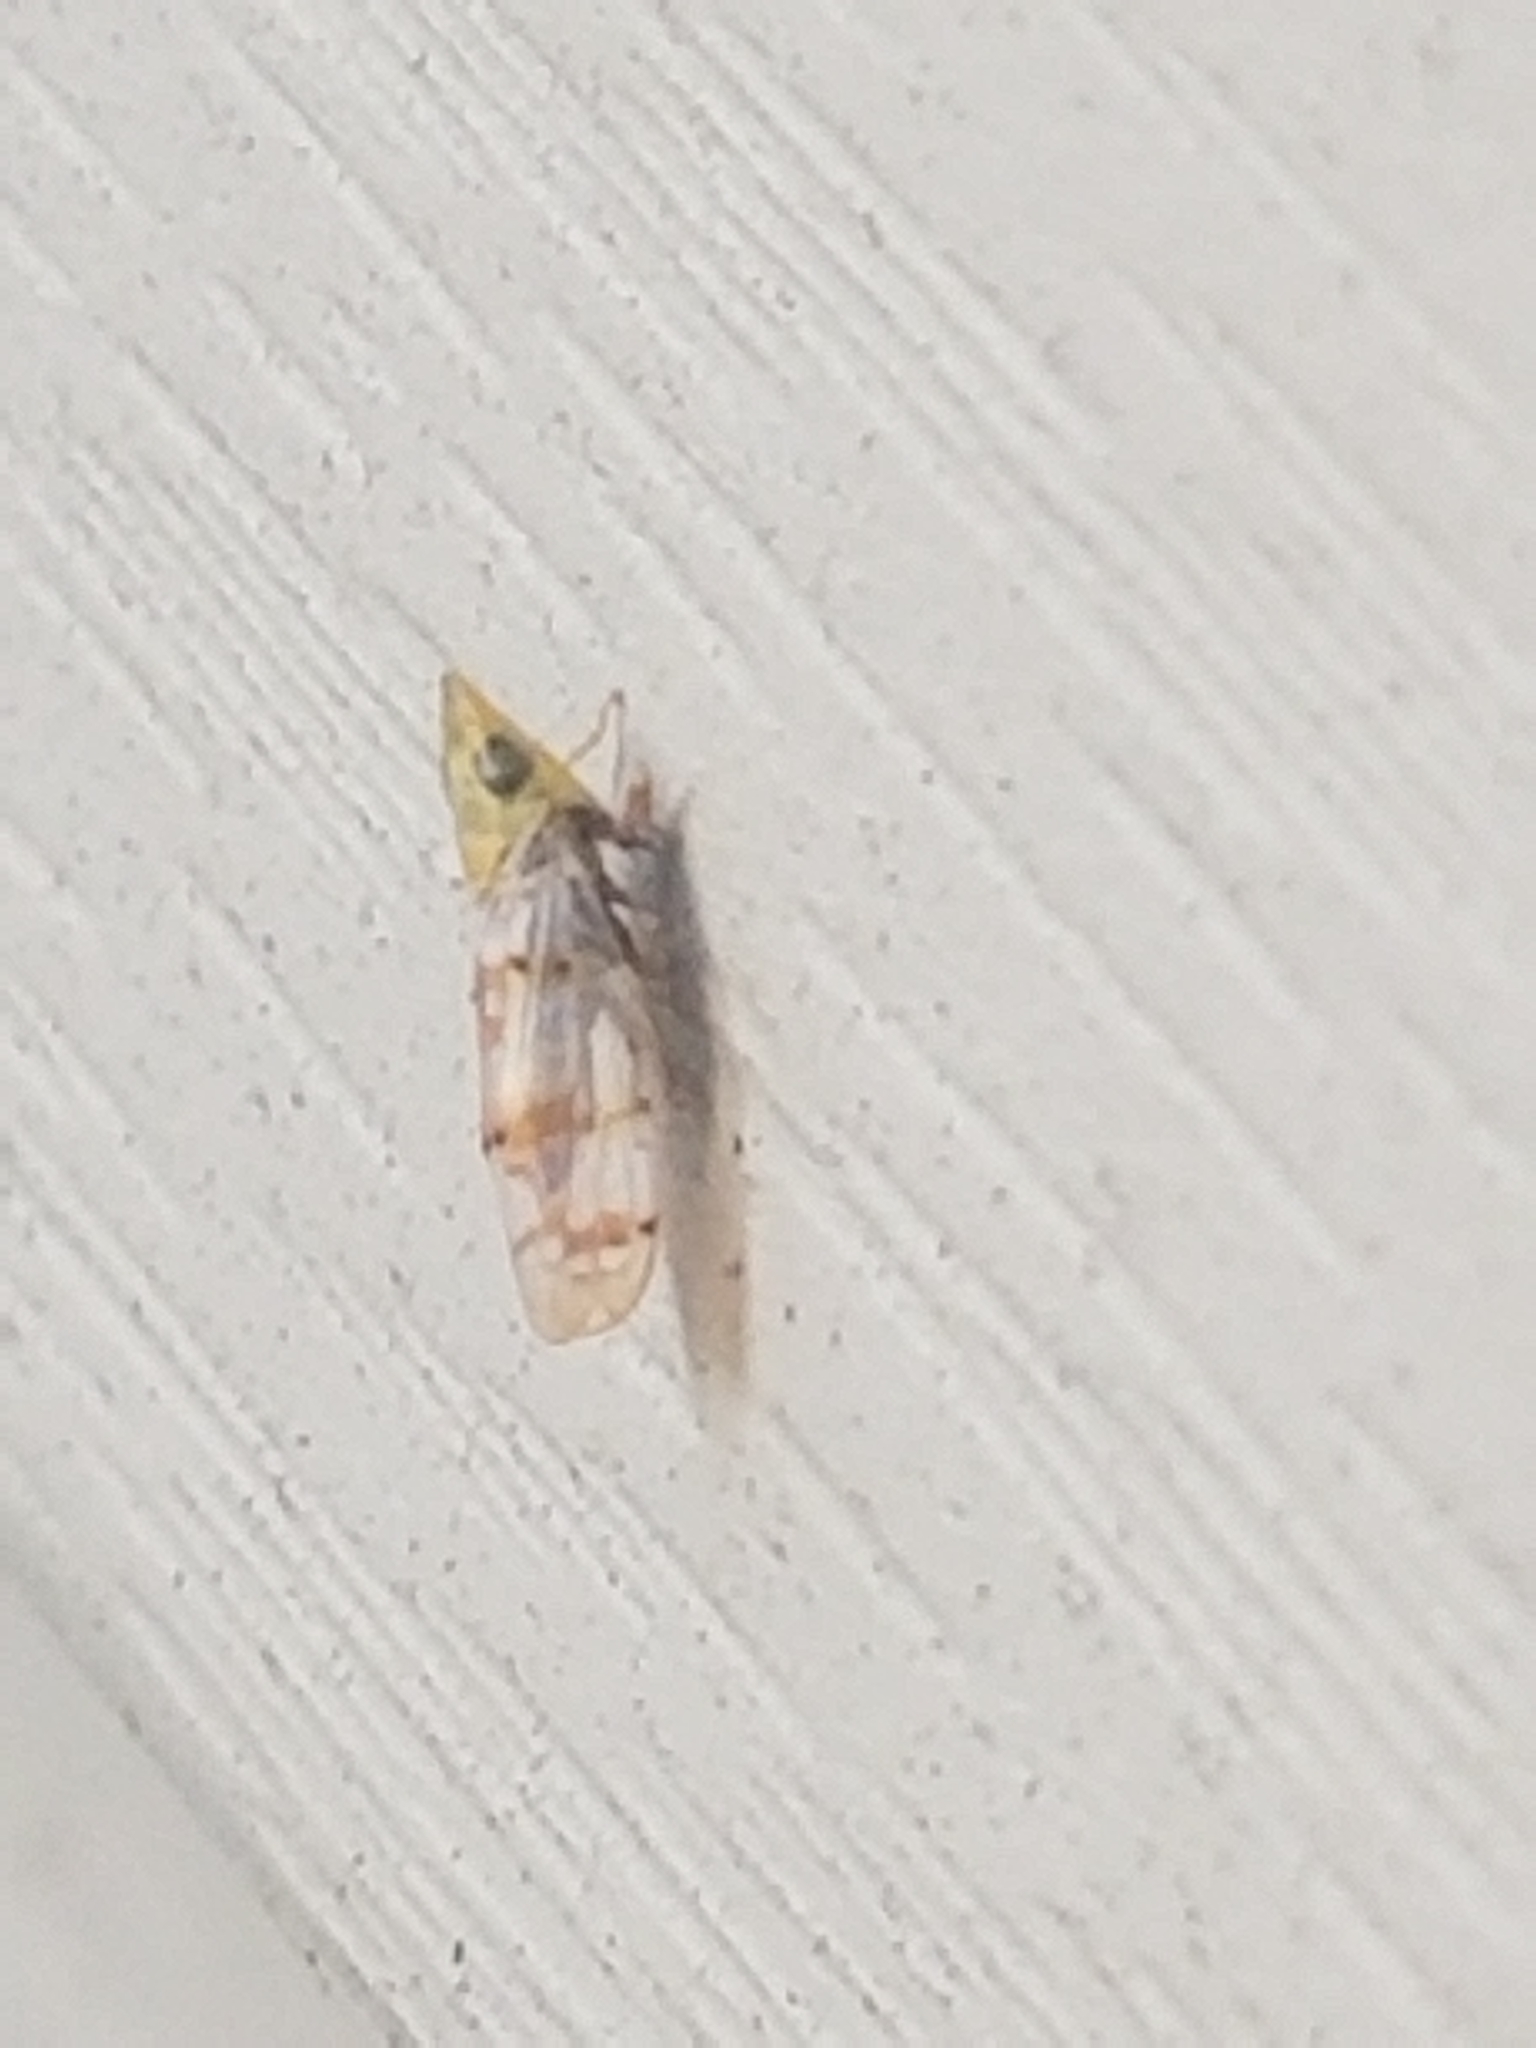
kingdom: Animalia
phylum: Arthropoda
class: Insecta
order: Hemiptera
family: Cicadellidae
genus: Japananus
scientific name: Japananus hyalinus
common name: The japanese maple leafhopper
